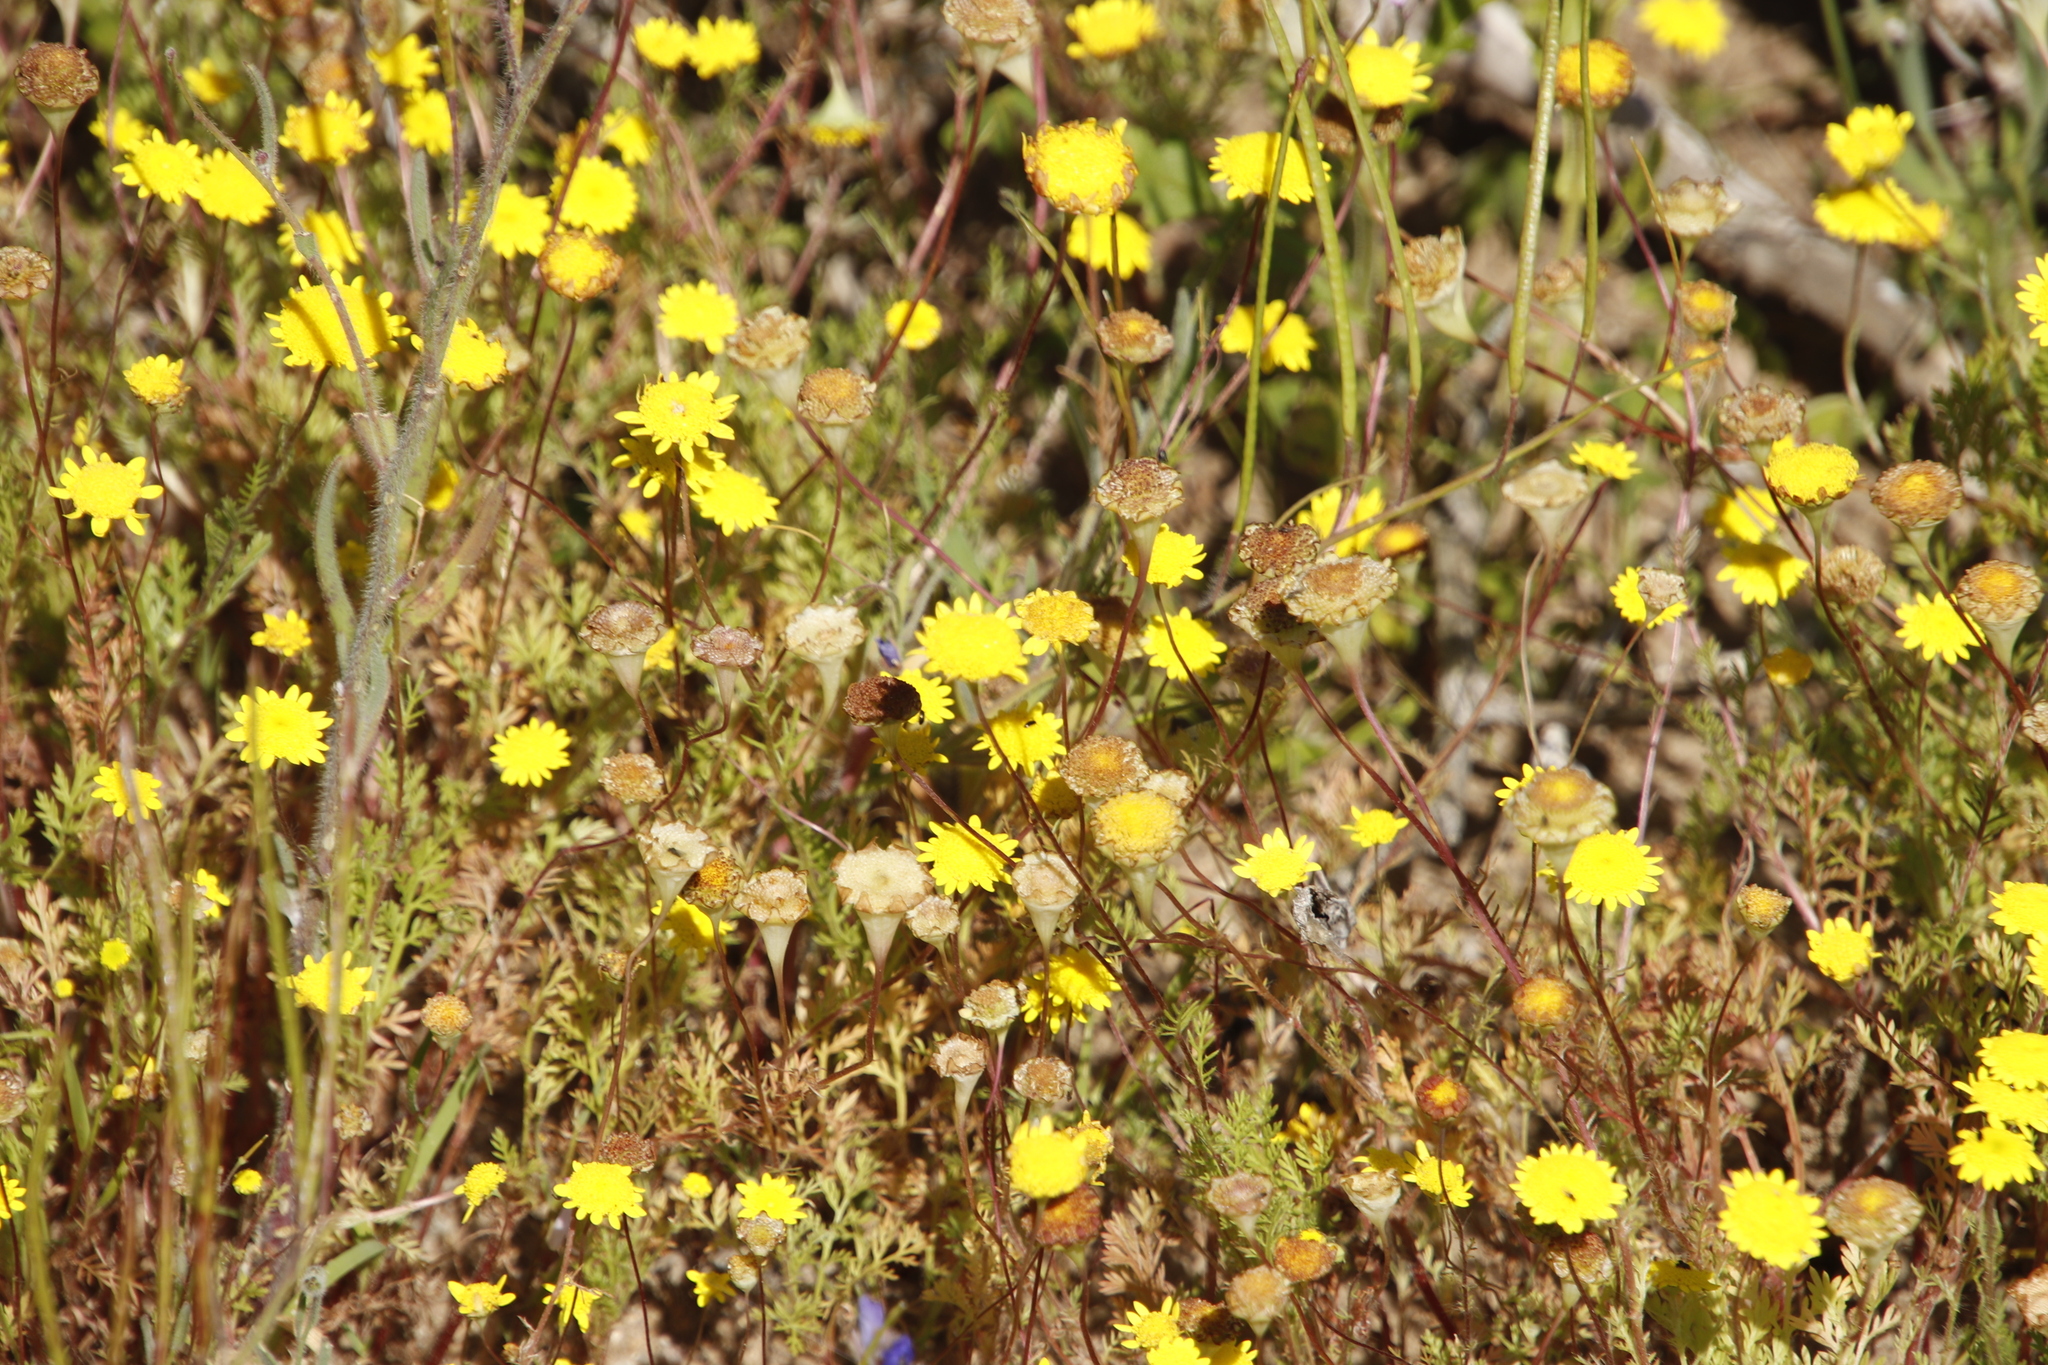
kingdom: Plantae
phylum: Tracheophyta
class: Magnoliopsida
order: Asterales
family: Asteraceae
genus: Cotula
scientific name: Cotula pruinosa
